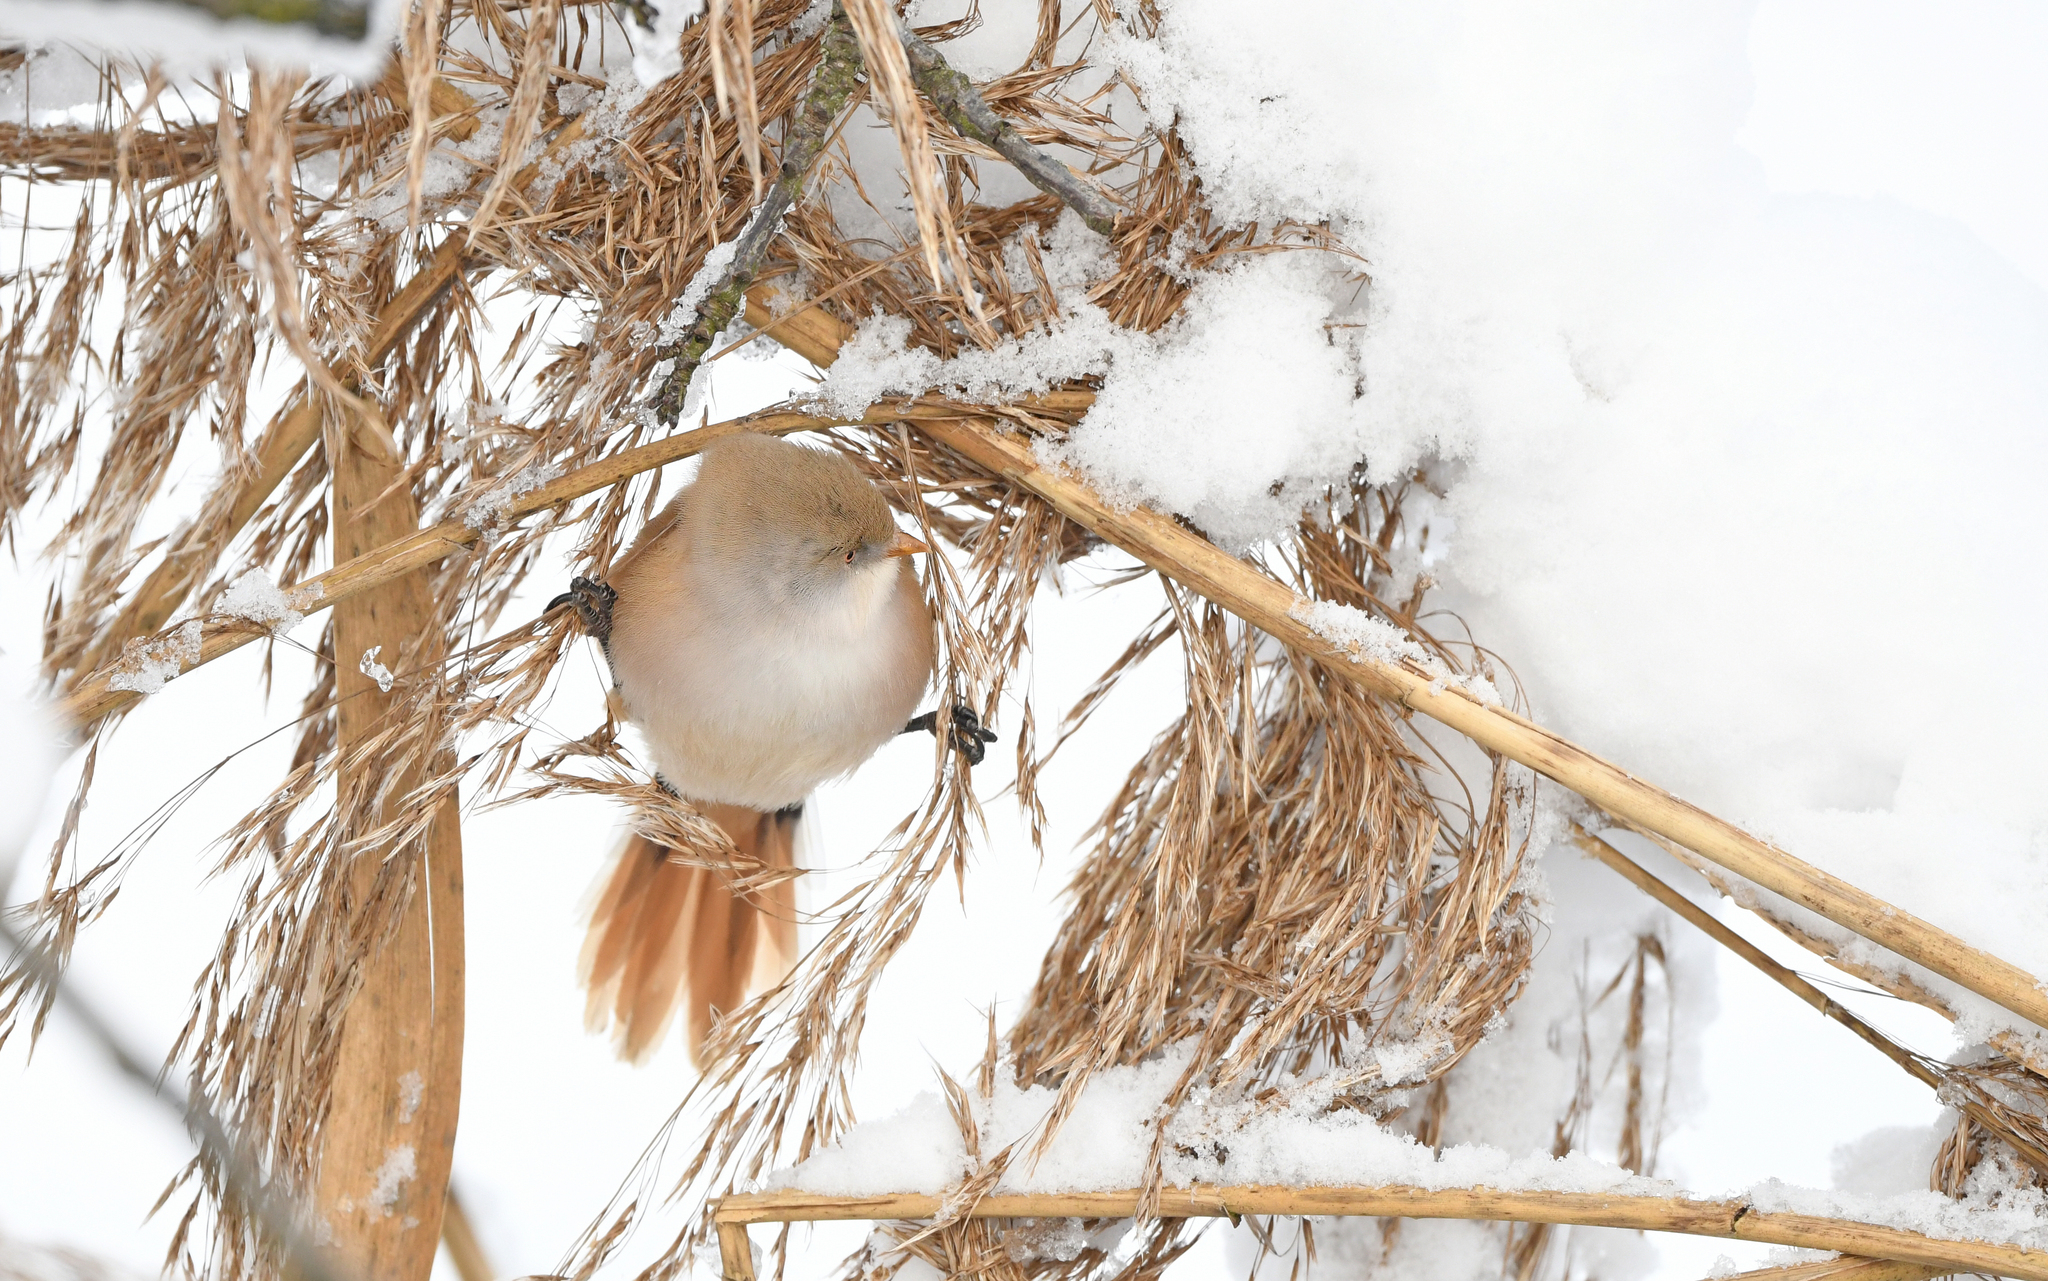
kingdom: Animalia
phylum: Chordata
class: Aves
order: Passeriformes
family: Panuridae
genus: Panurus
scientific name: Panurus biarmicus
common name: Bearded reedling
